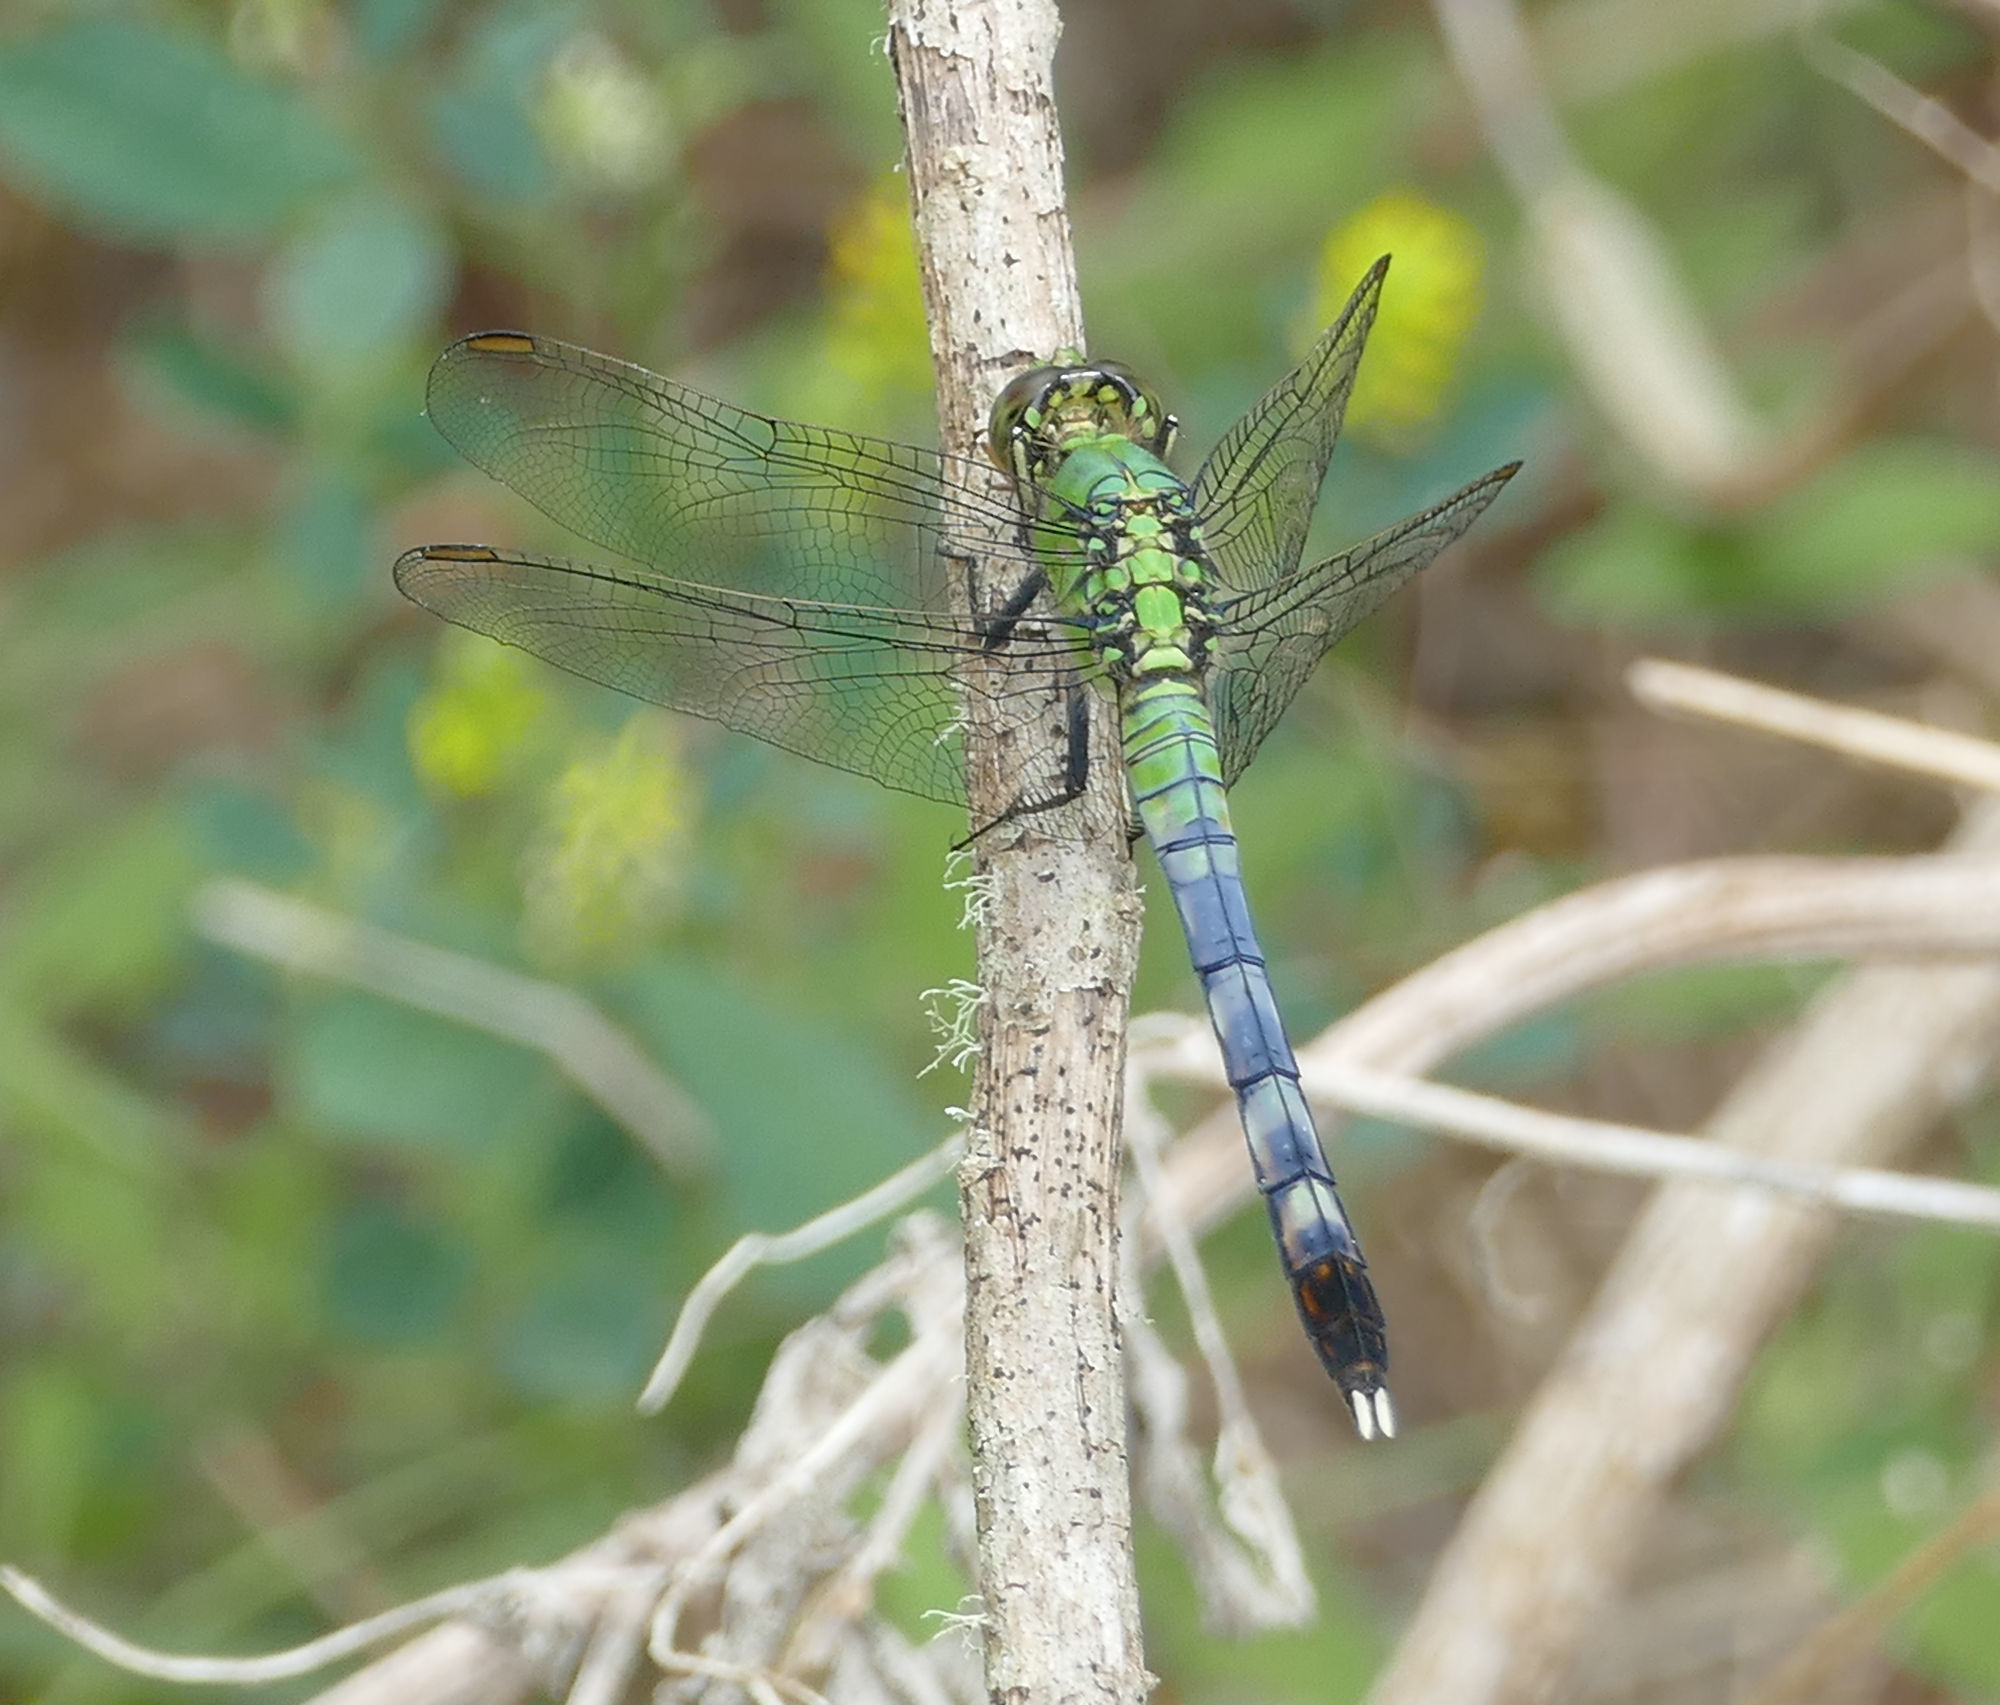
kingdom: Animalia
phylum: Arthropoda
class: Insecta
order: Odonata
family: Libellulidae
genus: Erythemis
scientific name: Erythemis simplicicollis
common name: Eastern pondhawk
